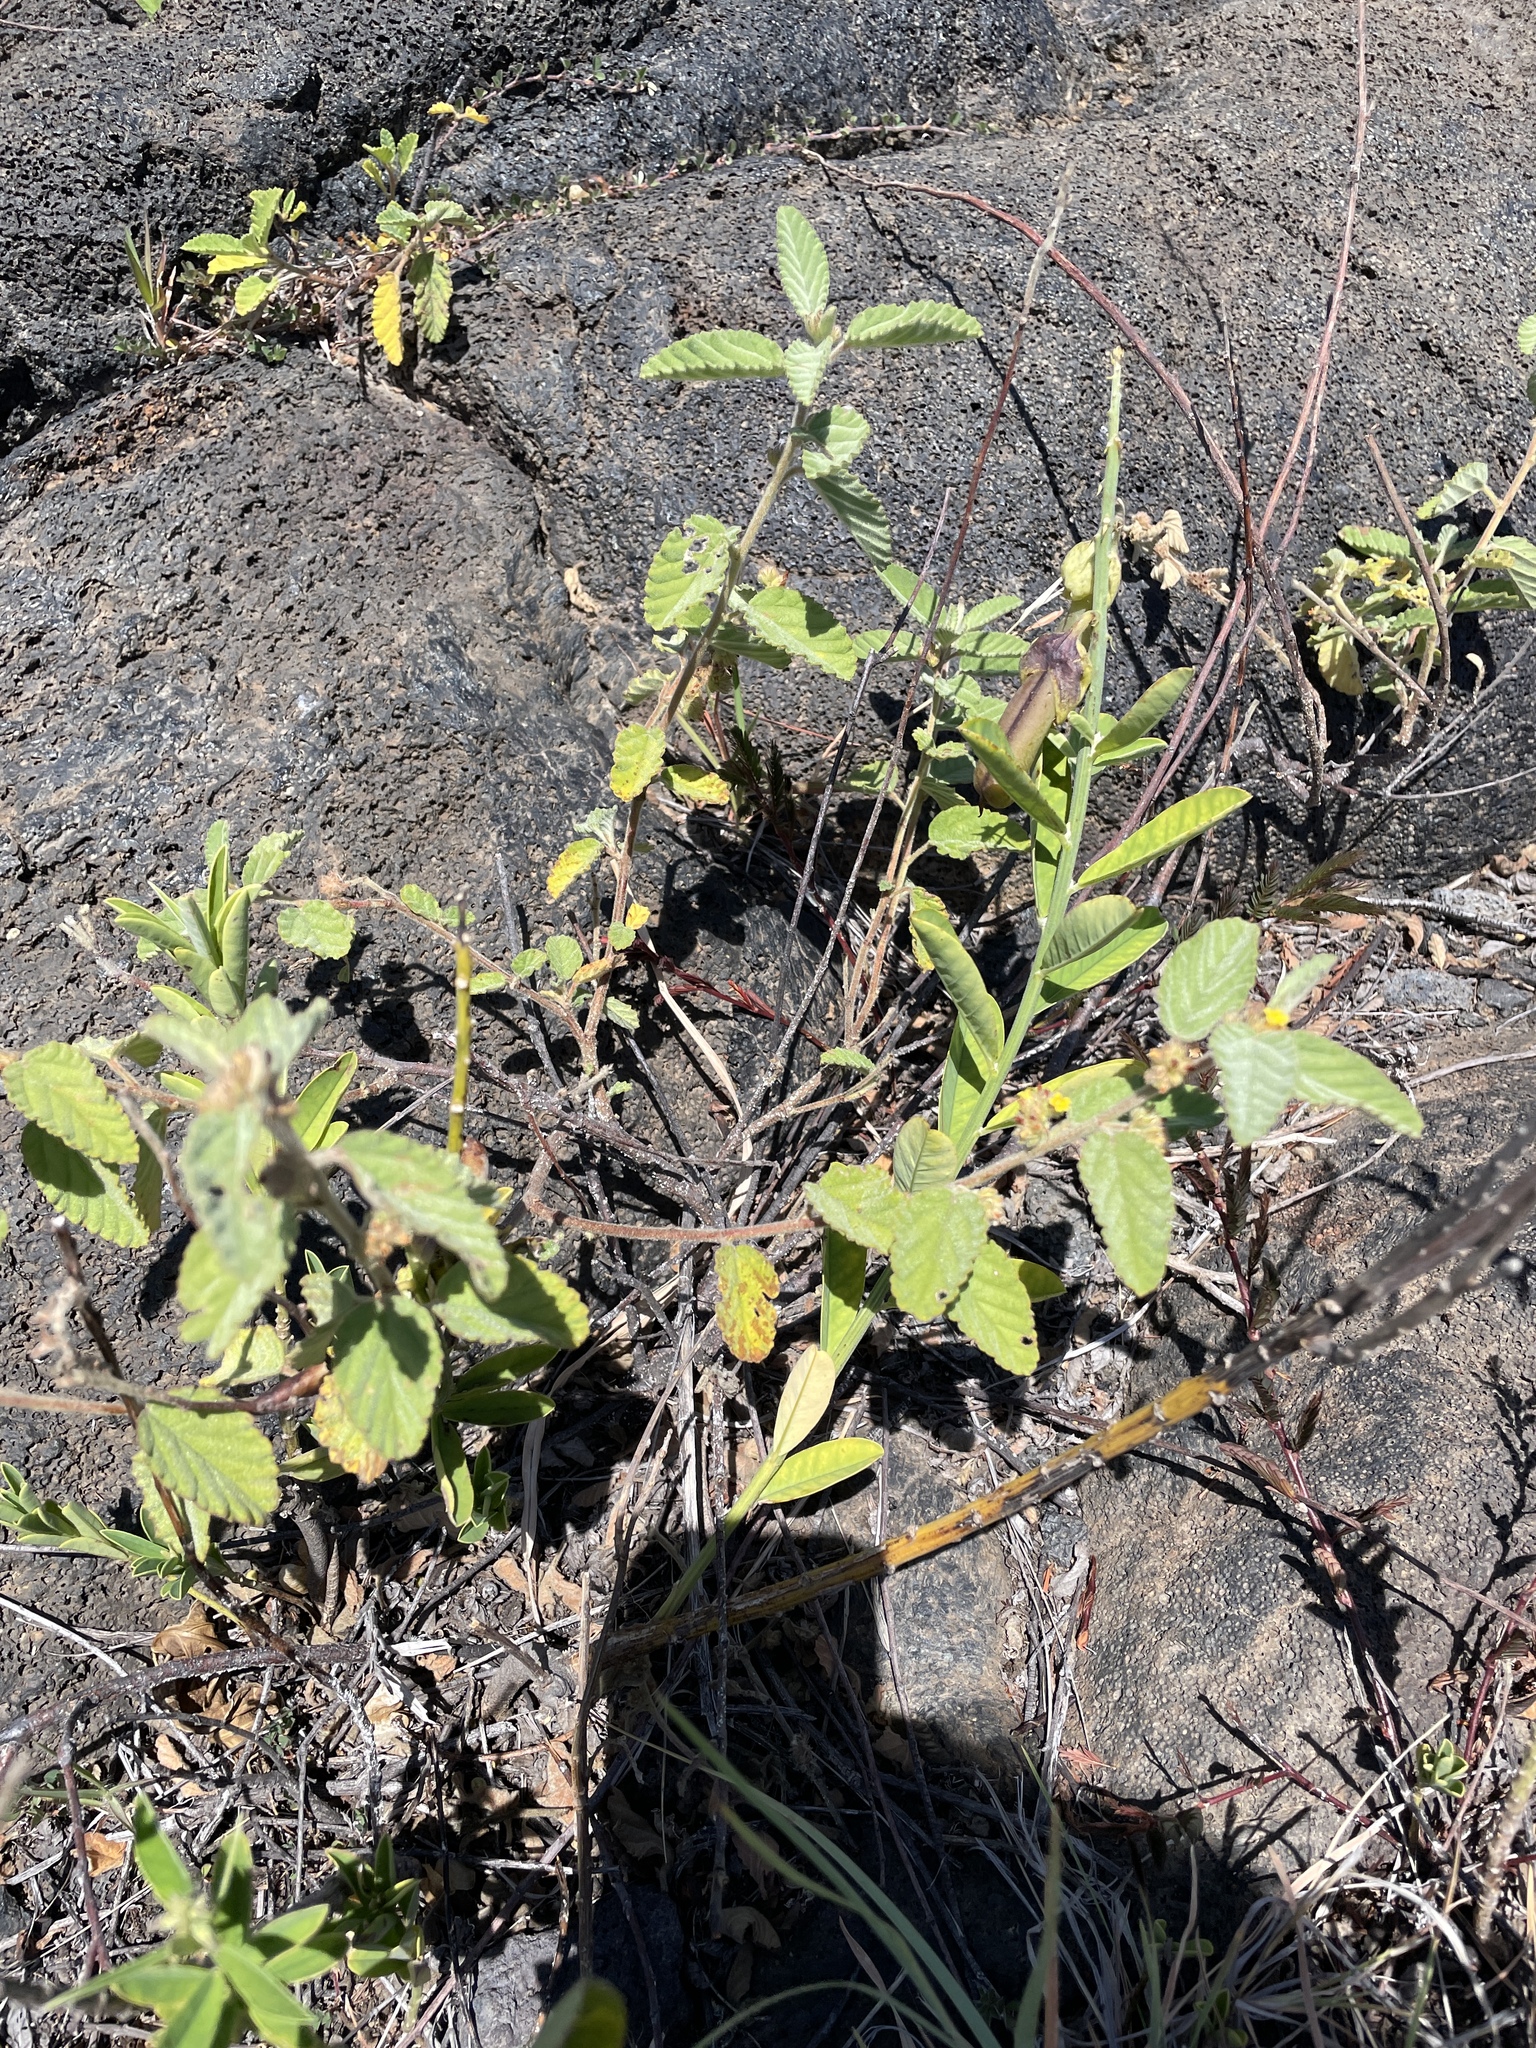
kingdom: Plantae
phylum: Tracheophyta
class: Magnoliopsida
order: Malvales
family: Malvaceae
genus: Waltheria
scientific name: Waltheria indica
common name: Leather-coat
